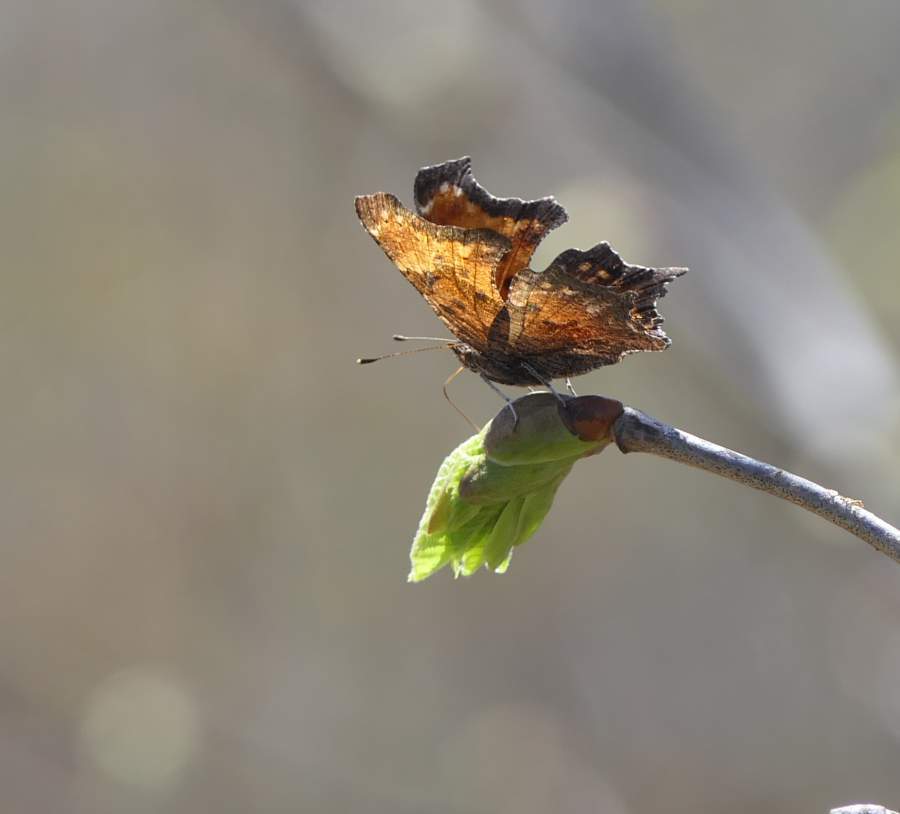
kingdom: Animalia
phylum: Arthropoda
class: Insecta
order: Lepidoptera
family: Nymphalidae
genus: Polygonia
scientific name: Polygonia progne
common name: Gray comma
